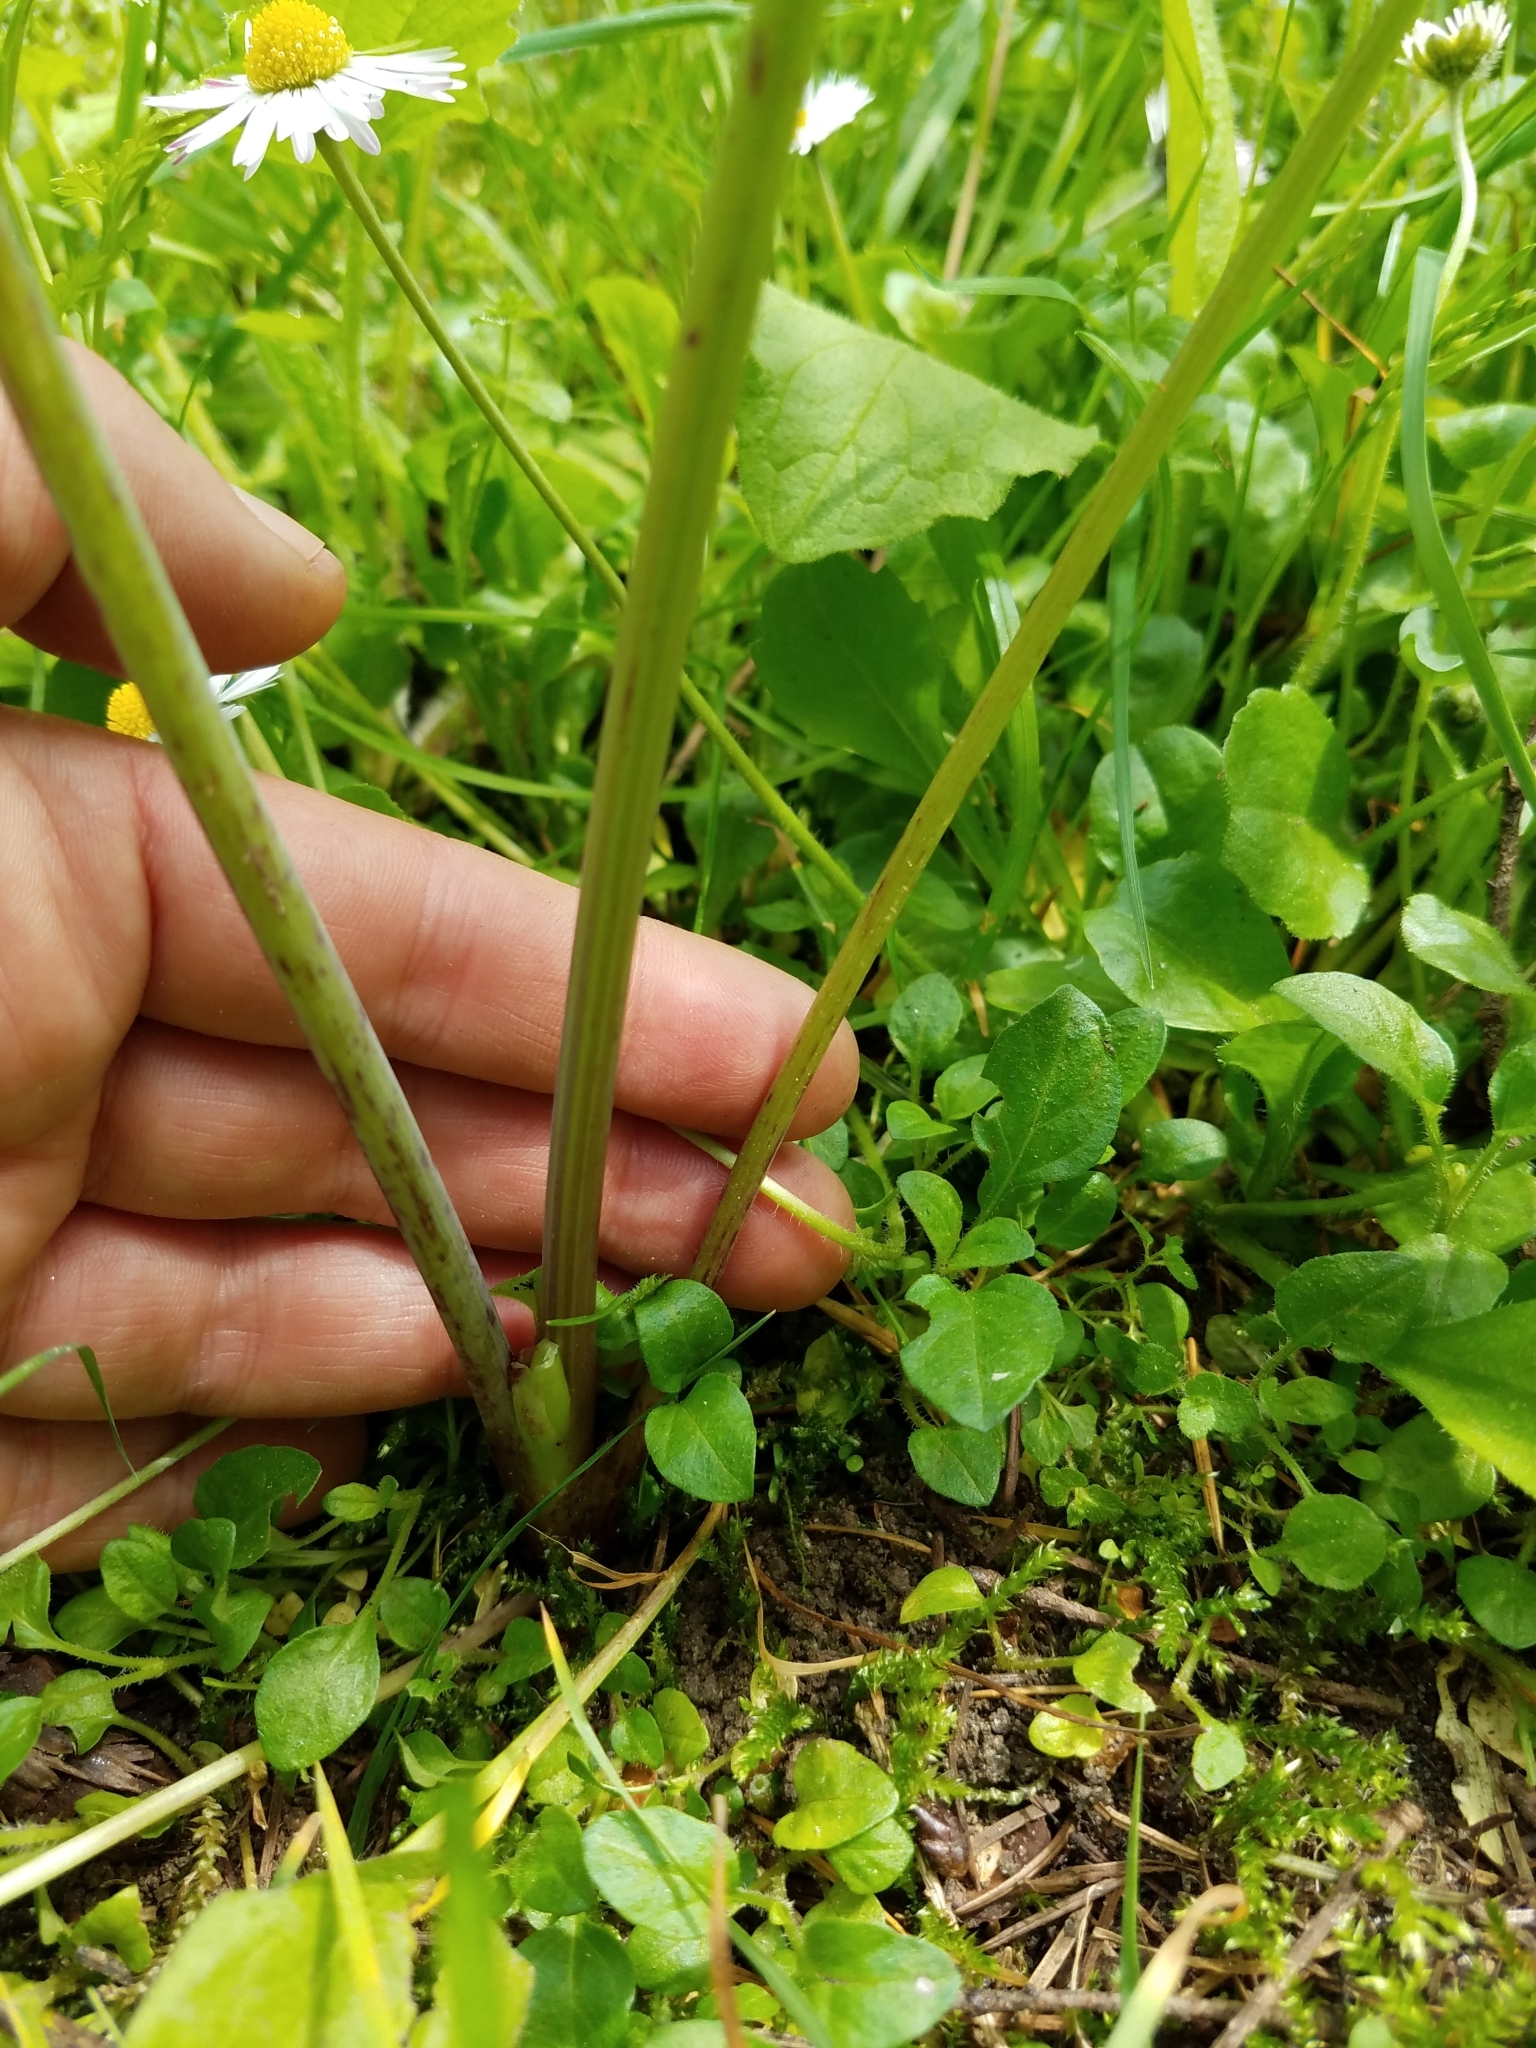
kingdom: Plantae
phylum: Tracheophyta
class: Magnoliopsida
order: Apiales
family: Apiaceae
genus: Conium
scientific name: Conium maculatum
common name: Hemlock
